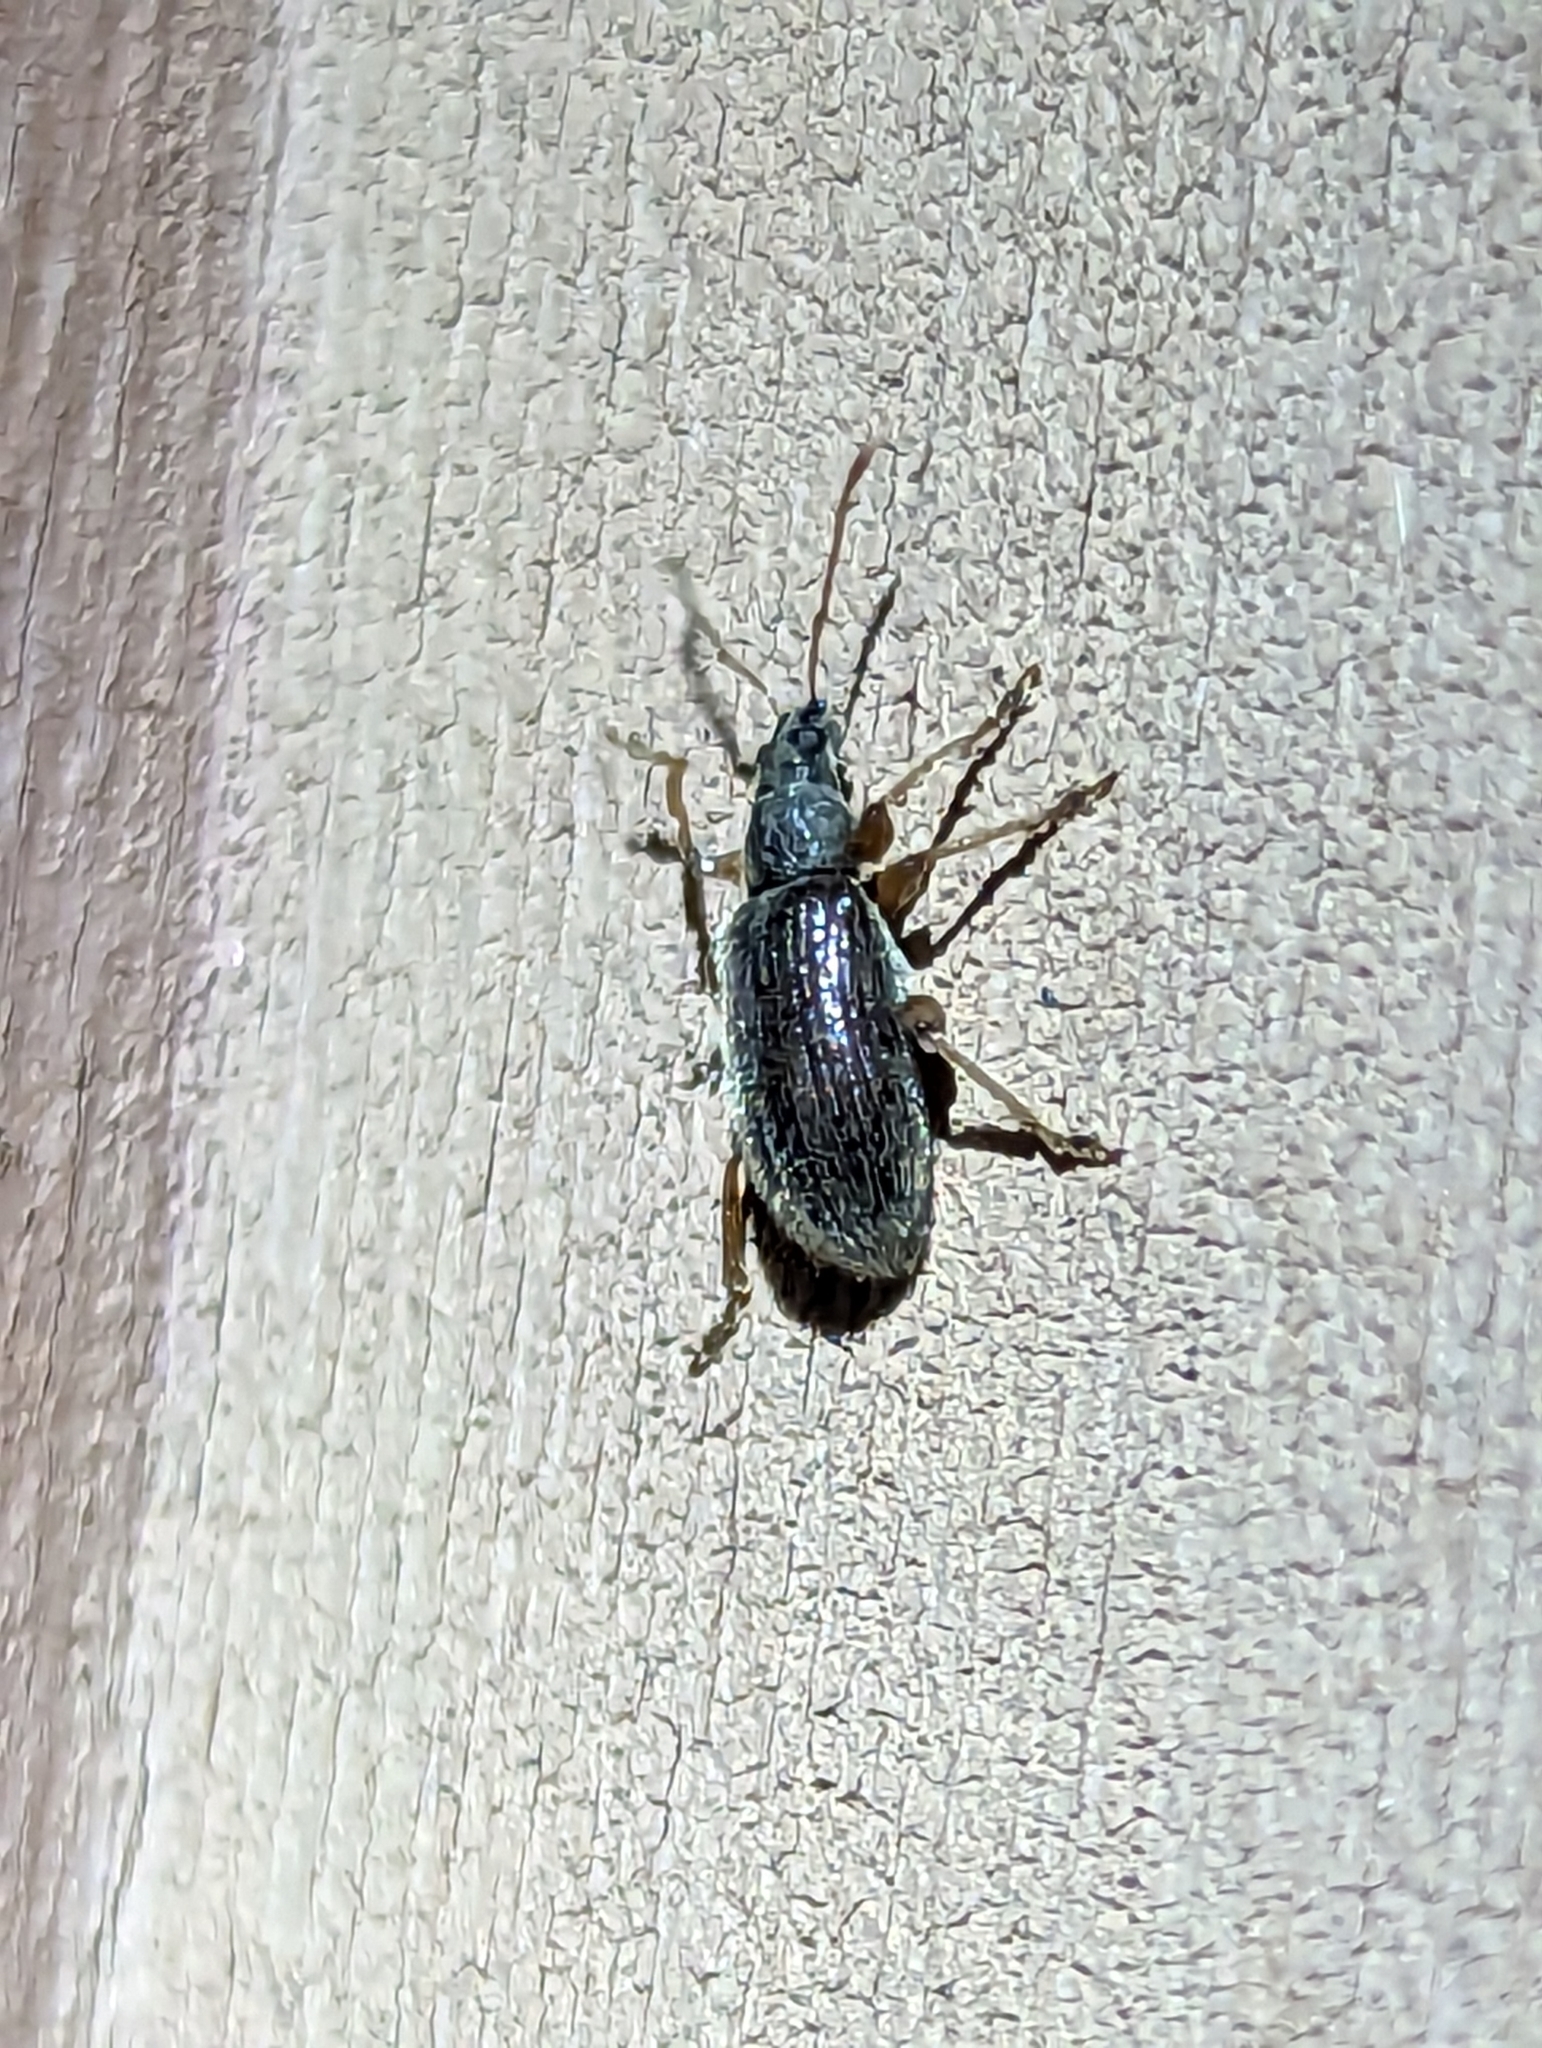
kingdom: Animalia
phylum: Arthropoda
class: Insecta
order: Coleoptera
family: Curculionidae
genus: Phyllobius
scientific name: Phyllobius oblongus
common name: Brown leaf weevil
